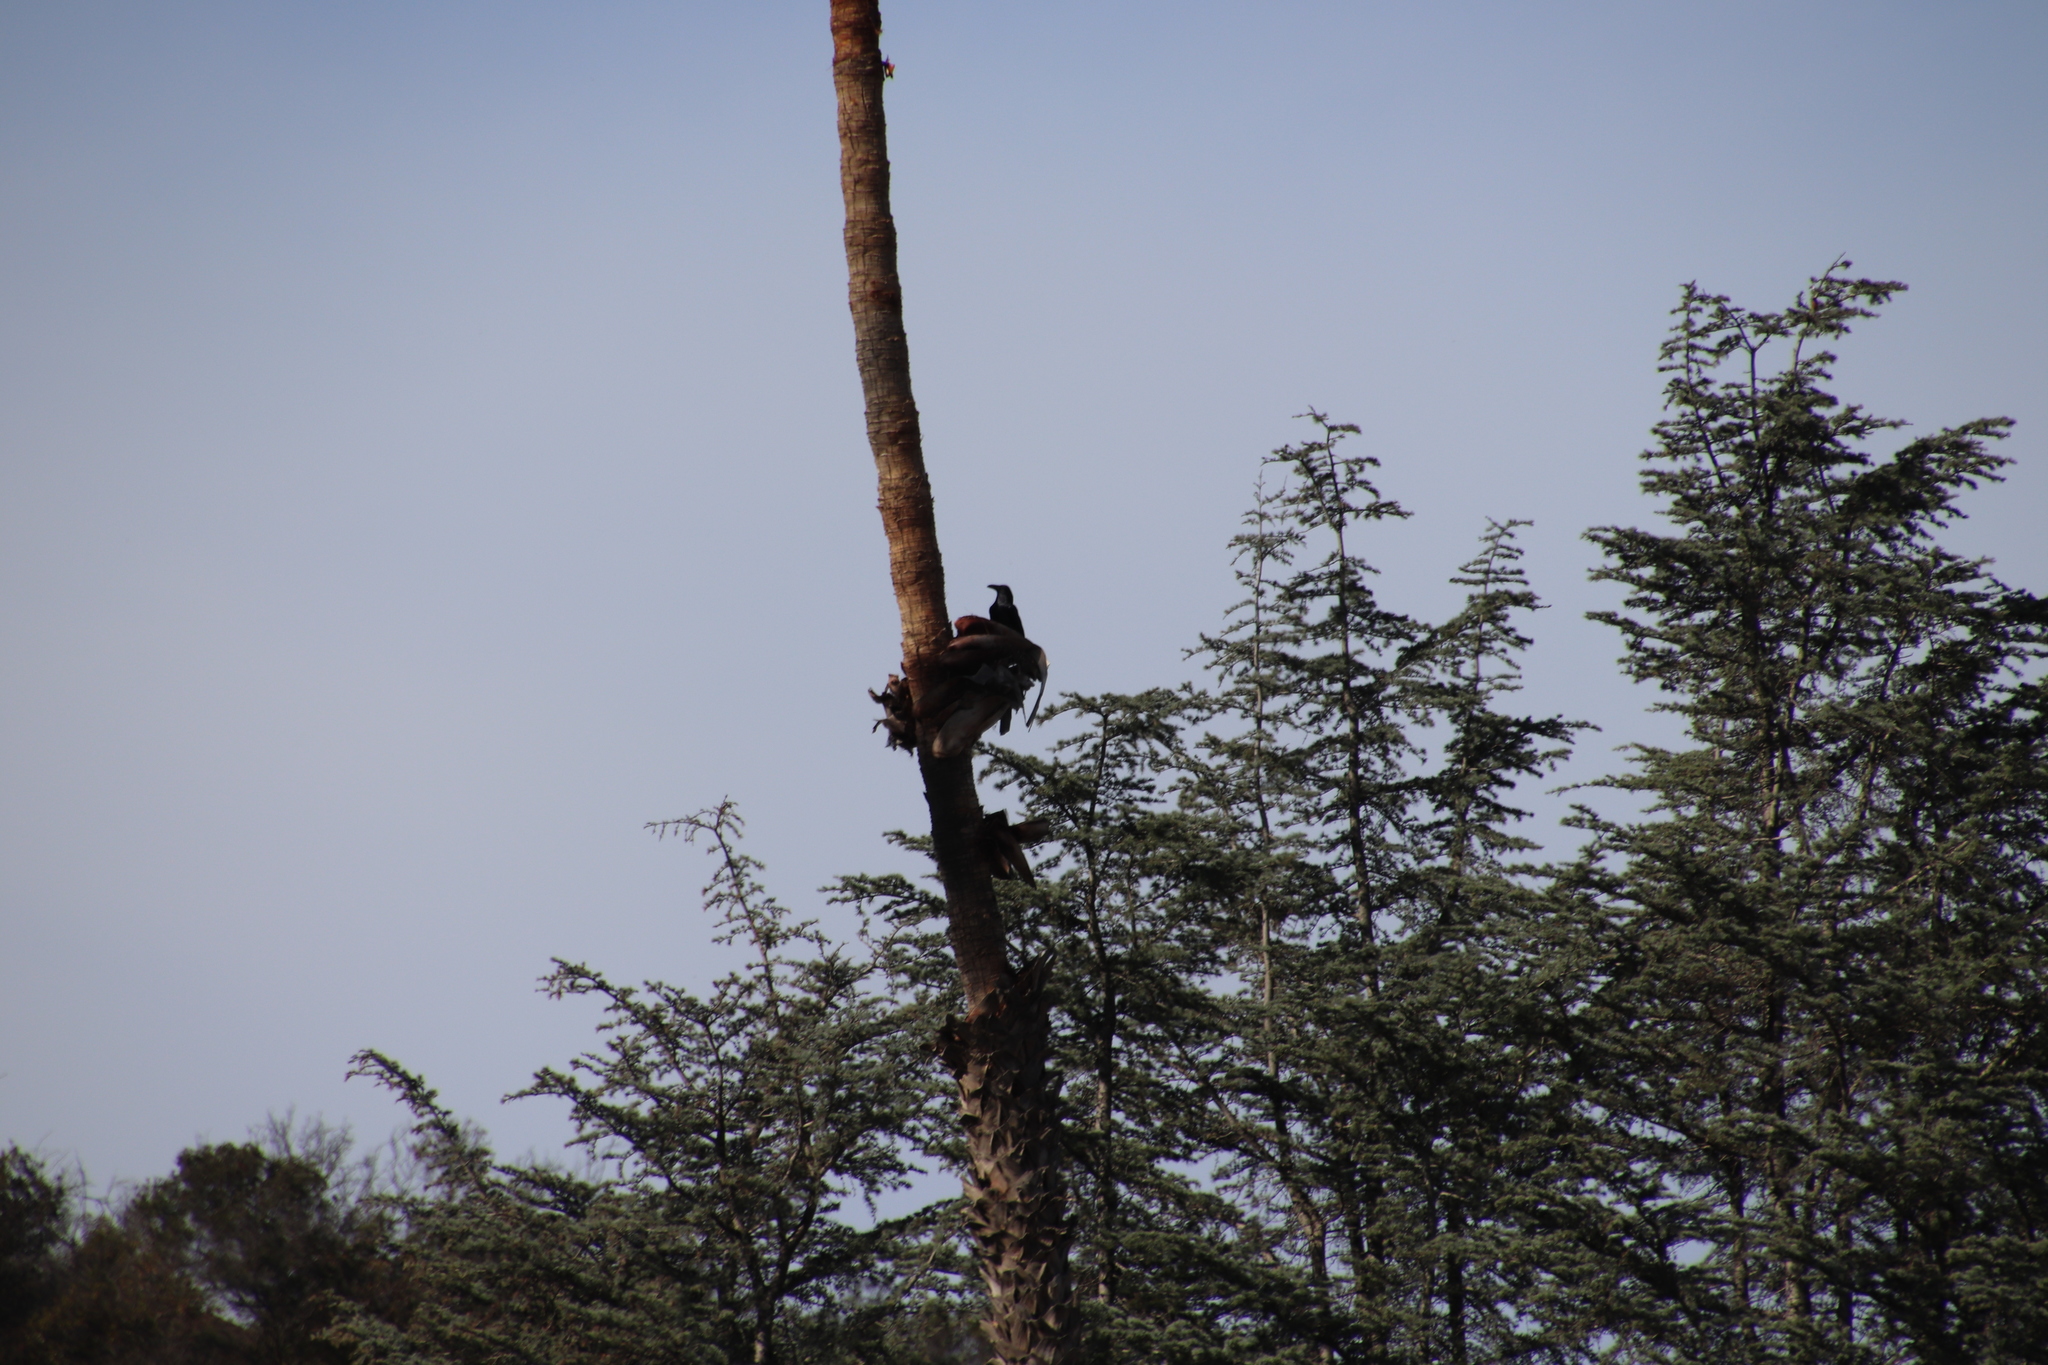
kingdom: Animalia
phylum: Chordata
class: Aves
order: Passeriformes
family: Corvidae
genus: Corvus
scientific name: Corvus corax
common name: Common raven
